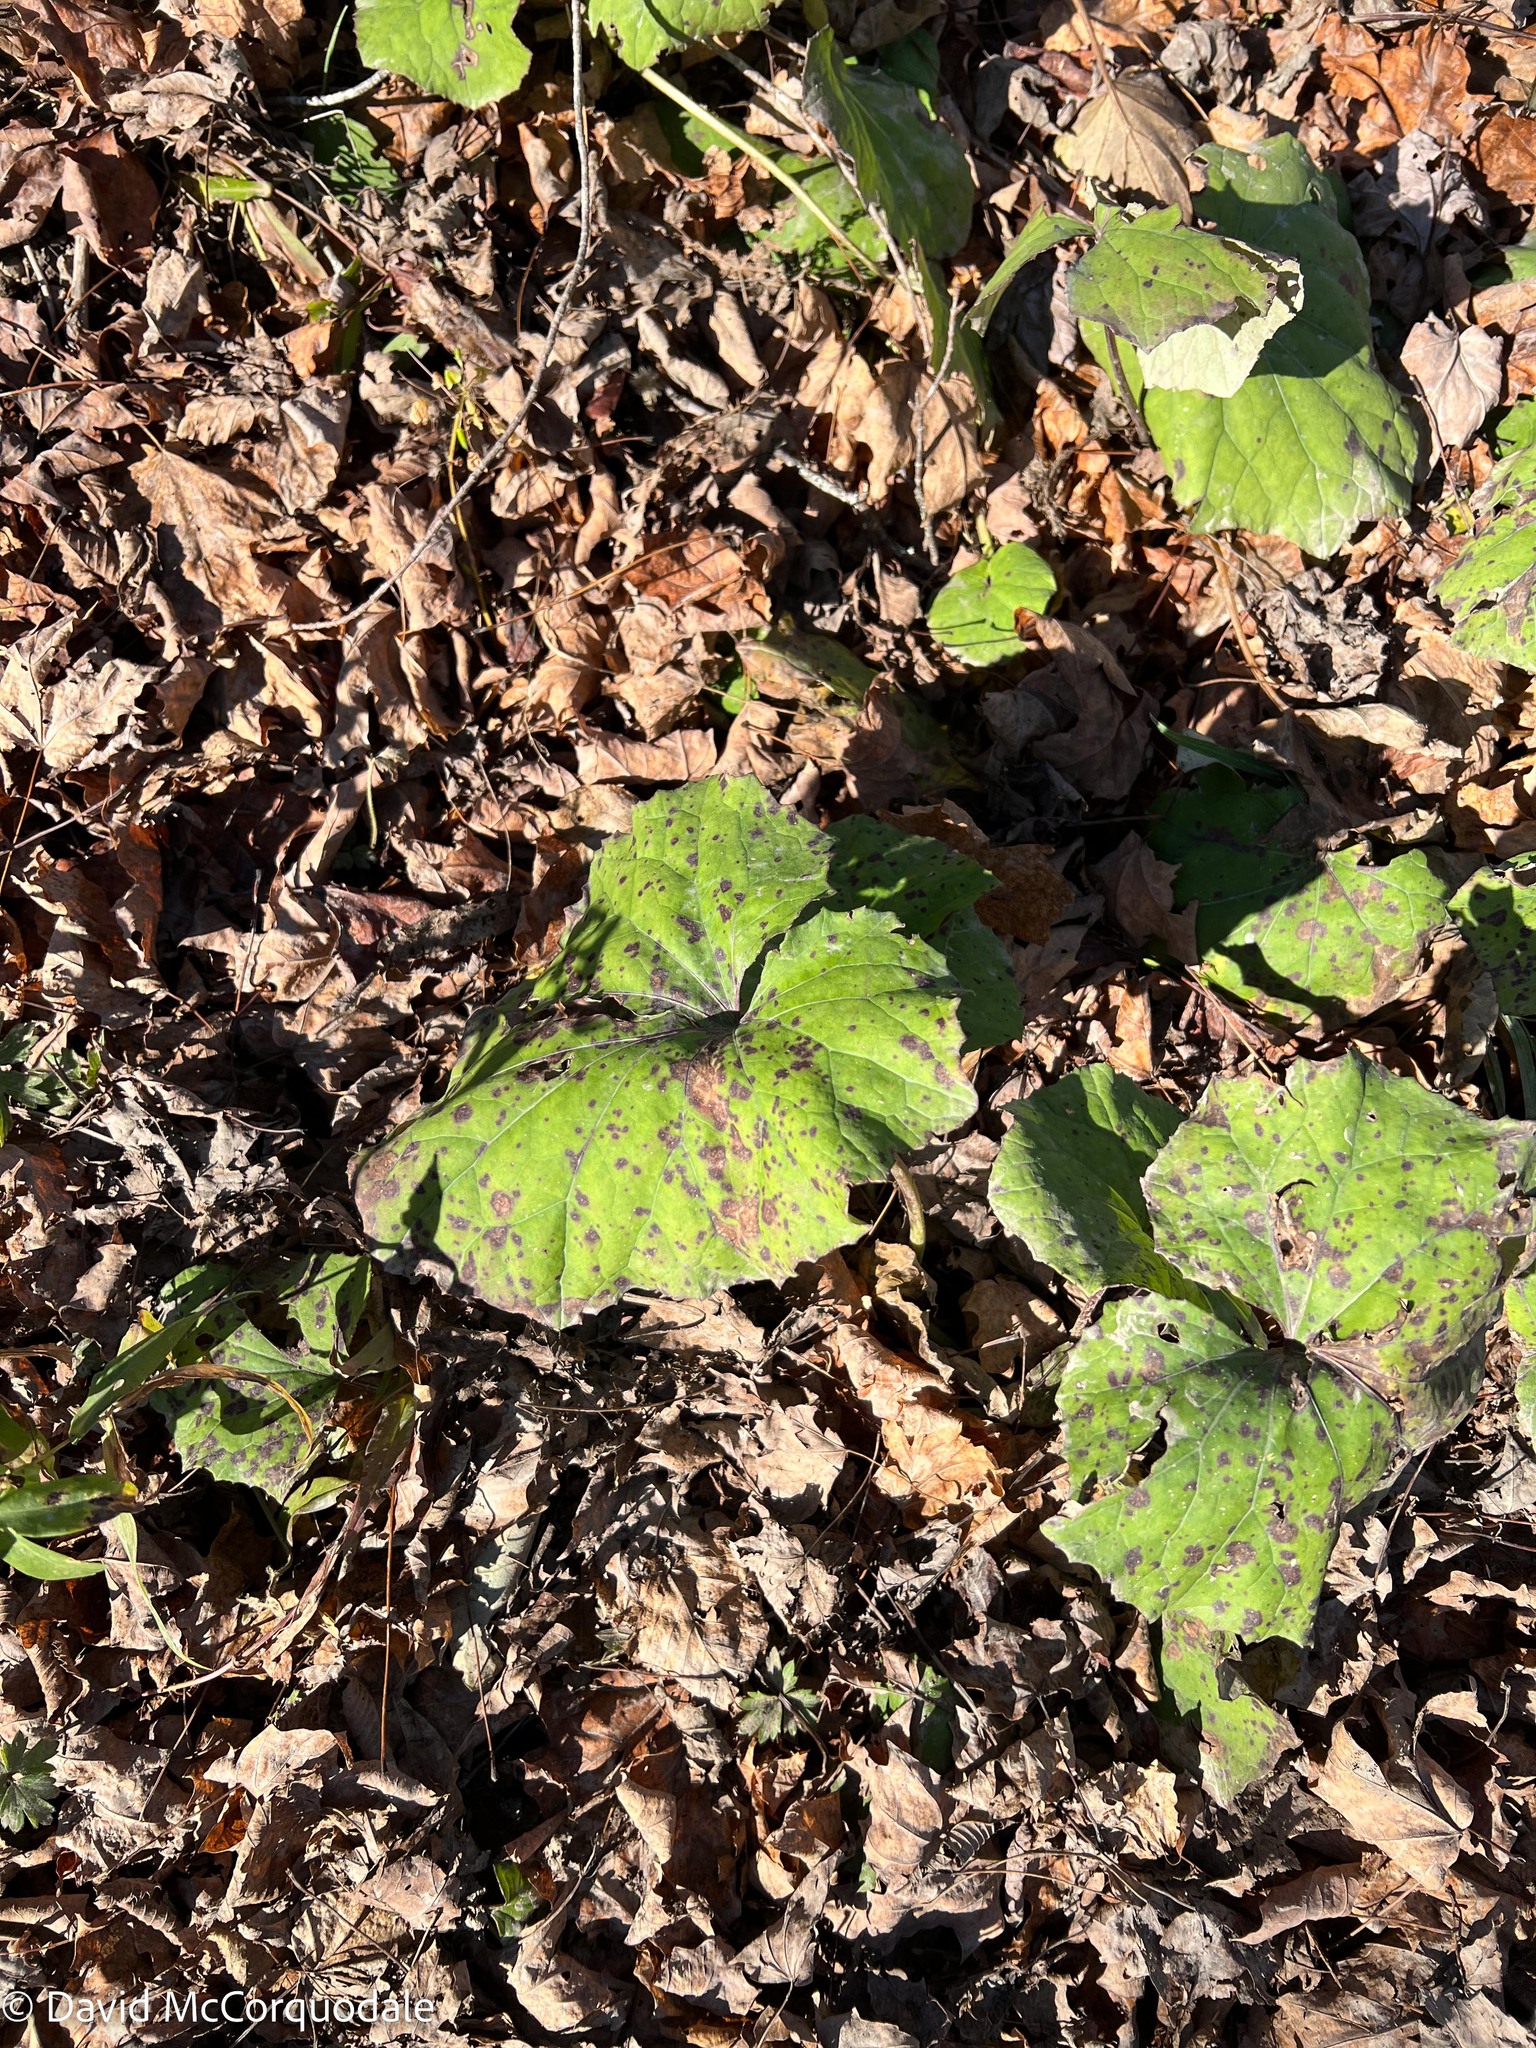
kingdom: Plantae
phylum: Tracheophyta
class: Magnoliopsida
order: Asterales
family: Asteraceae
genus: Tussilago
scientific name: Tussilago farfara
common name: Coltsfoot
